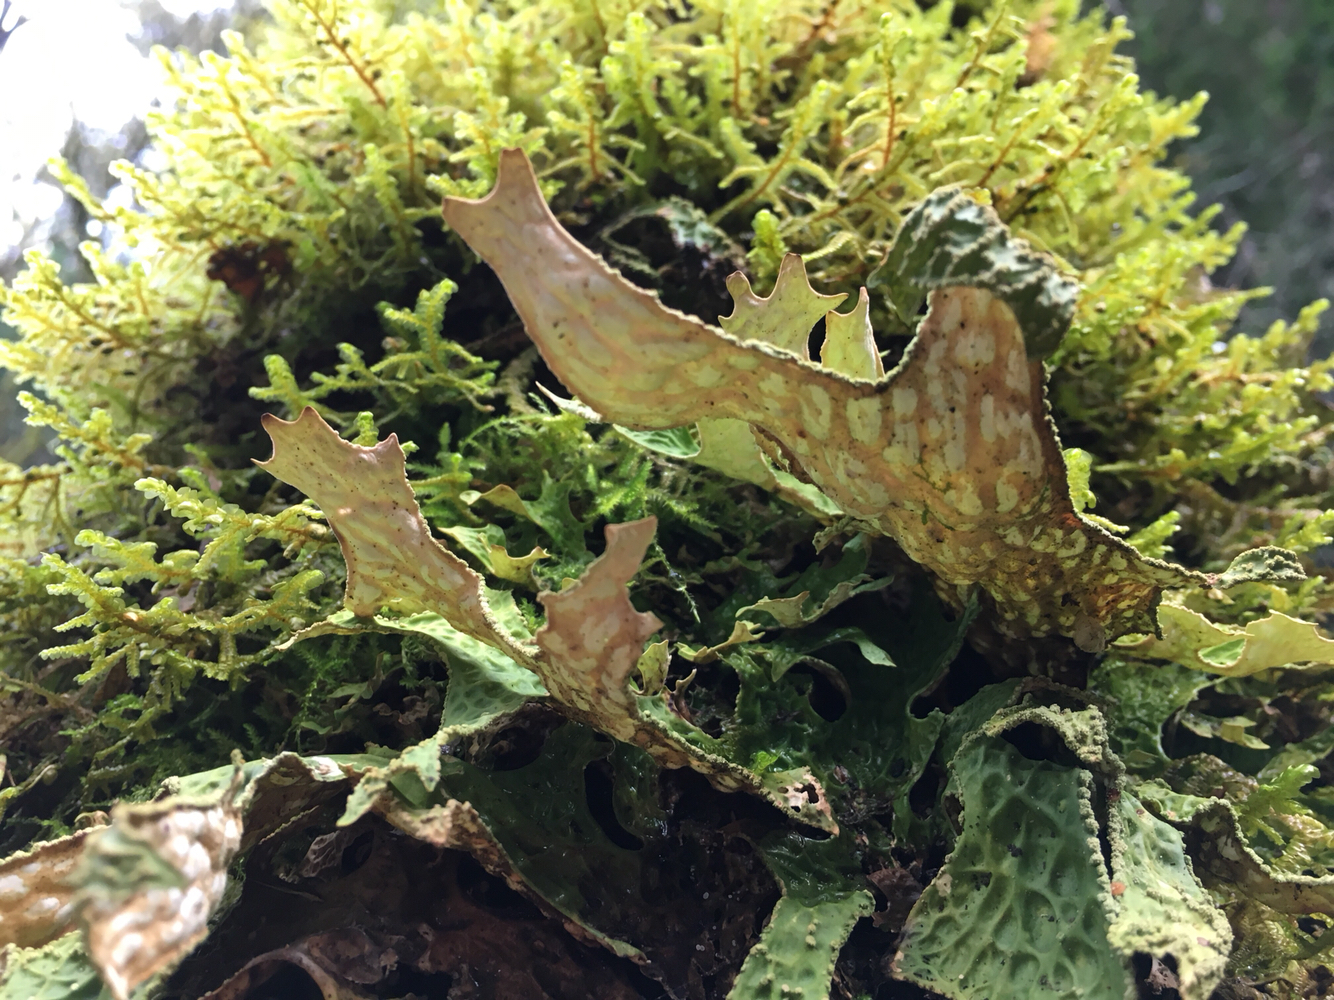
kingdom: Fungi
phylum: Ascomycota
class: Lecanoromycetes
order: Peltigerales
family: Lobariaceae
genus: Lobaria
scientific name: Lobaria pulmonaria
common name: Lungwort
